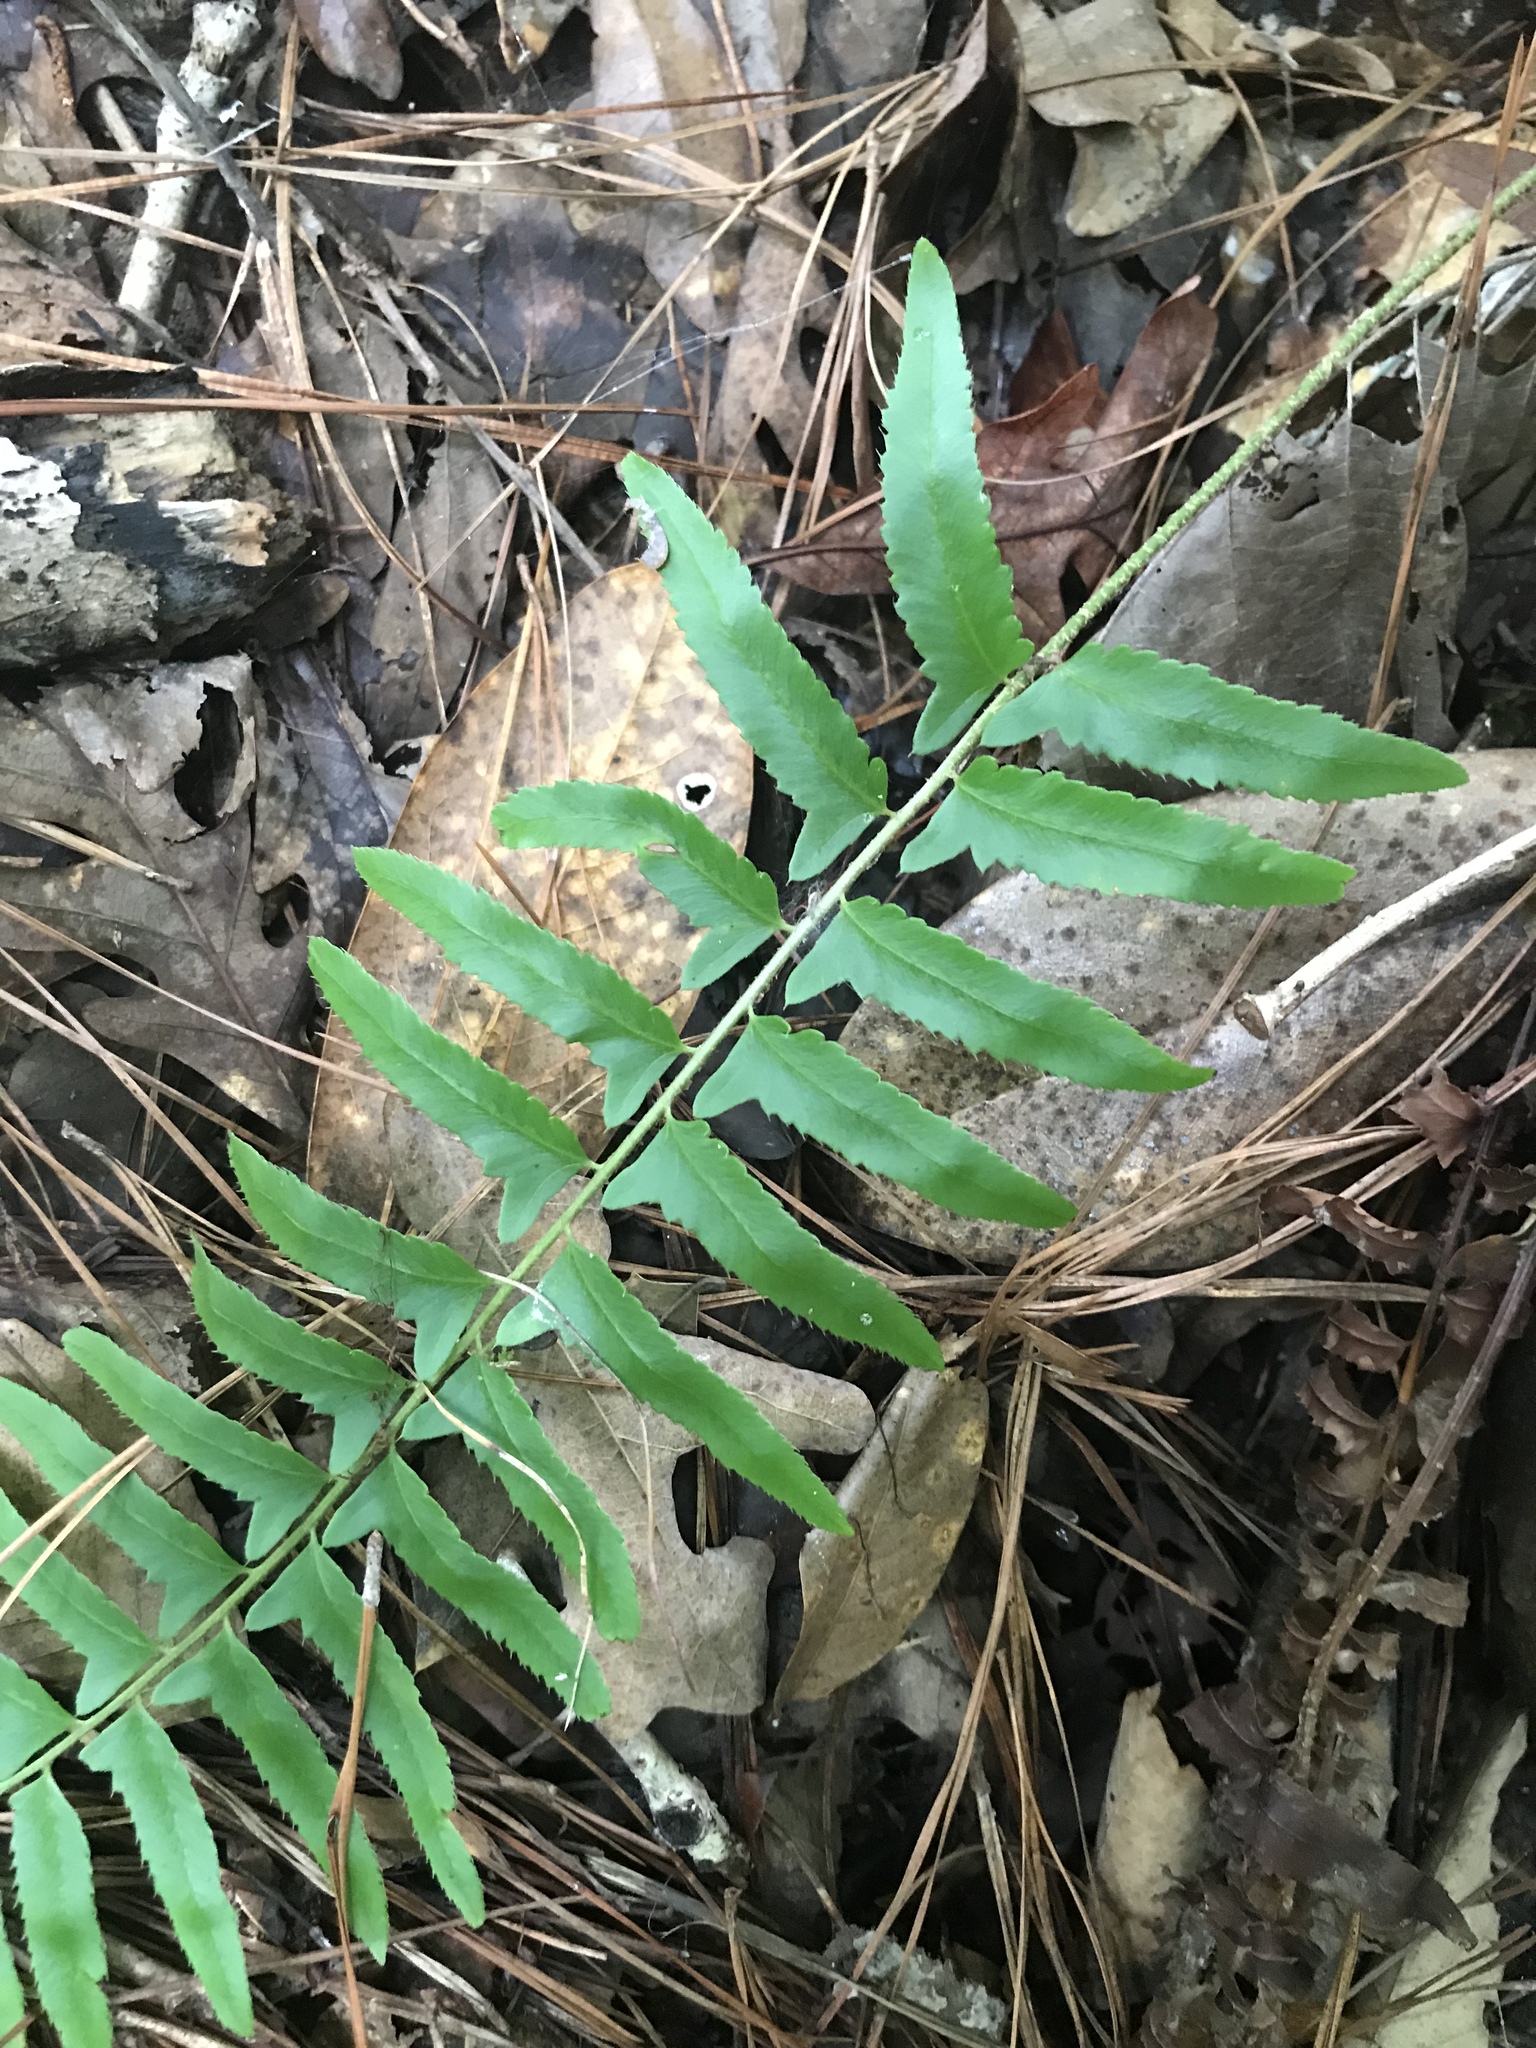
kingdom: Plantae
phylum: Tracheophyta
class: Polypodiopsida
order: Polypodiales
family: Dryopteridaceae
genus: Polystichum
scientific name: Polystichum acrostichoides
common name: Christmas fern
